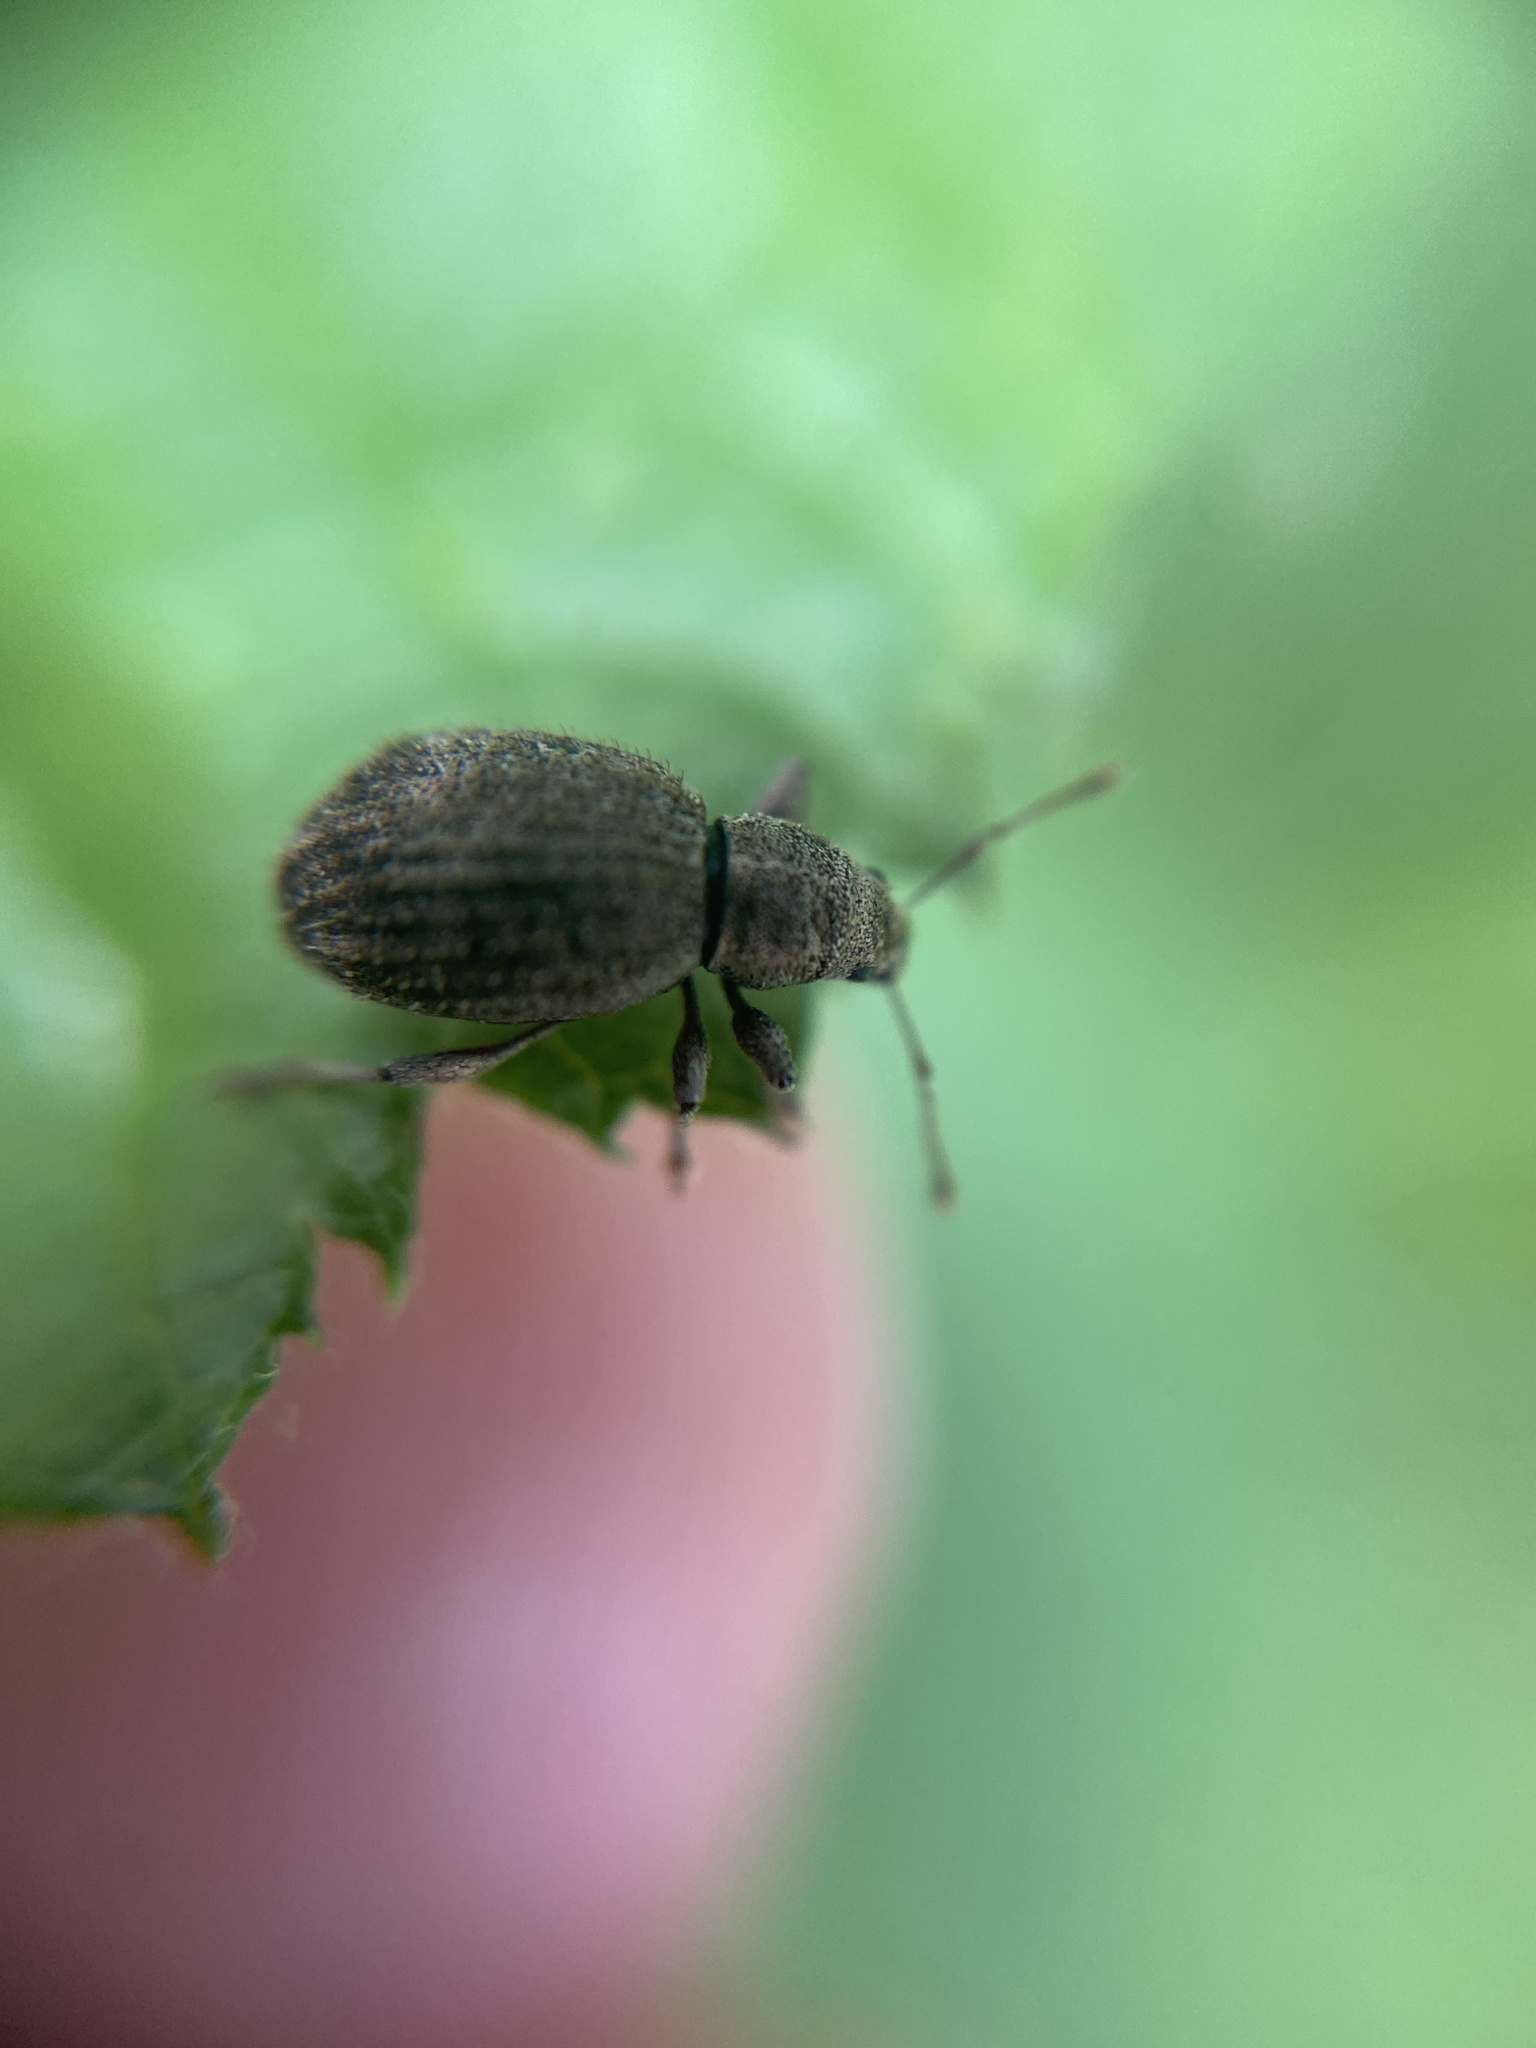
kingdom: Animalia
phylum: Arthropoda
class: Insecta
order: Coleoptera
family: Curculionidae
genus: Sciaphilus
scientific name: Sciaphilus asperatus
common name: Weevil
